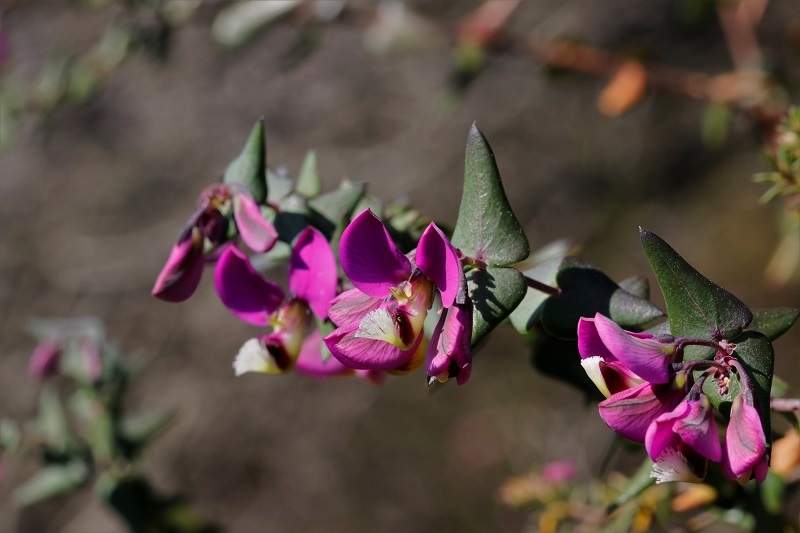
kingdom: Plantae
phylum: Tracheophyta
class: Magnoliopsida
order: Fabales
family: Polygalaceae
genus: Polygala
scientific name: Polygala fruticosa
